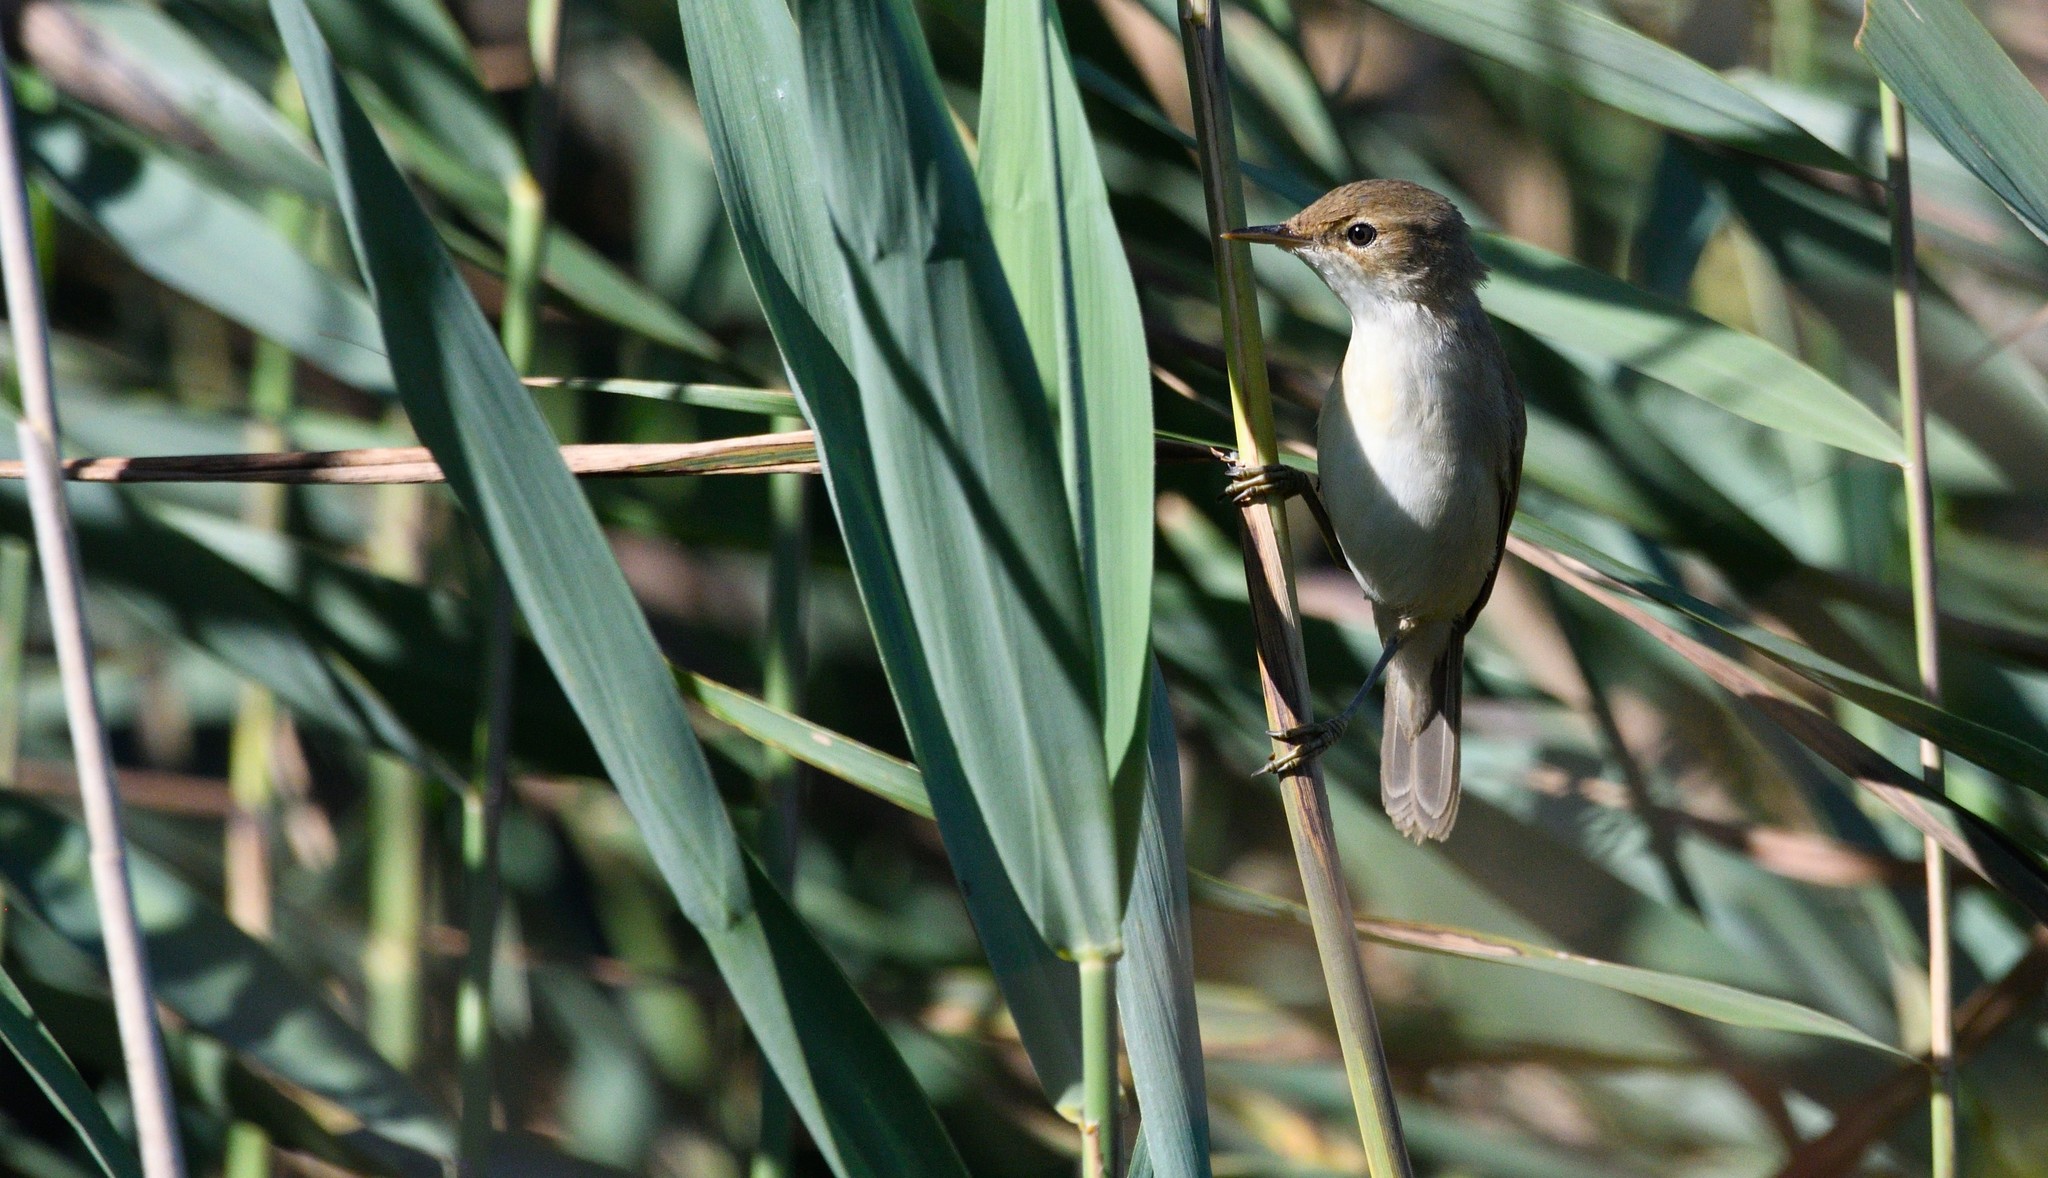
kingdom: Animalia
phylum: Chordata
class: Aves
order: Passeriformes
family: Acrocephalidae
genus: Acrocephalus
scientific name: Acrocephalus scirpaceus
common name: Eurasian reed warbler
